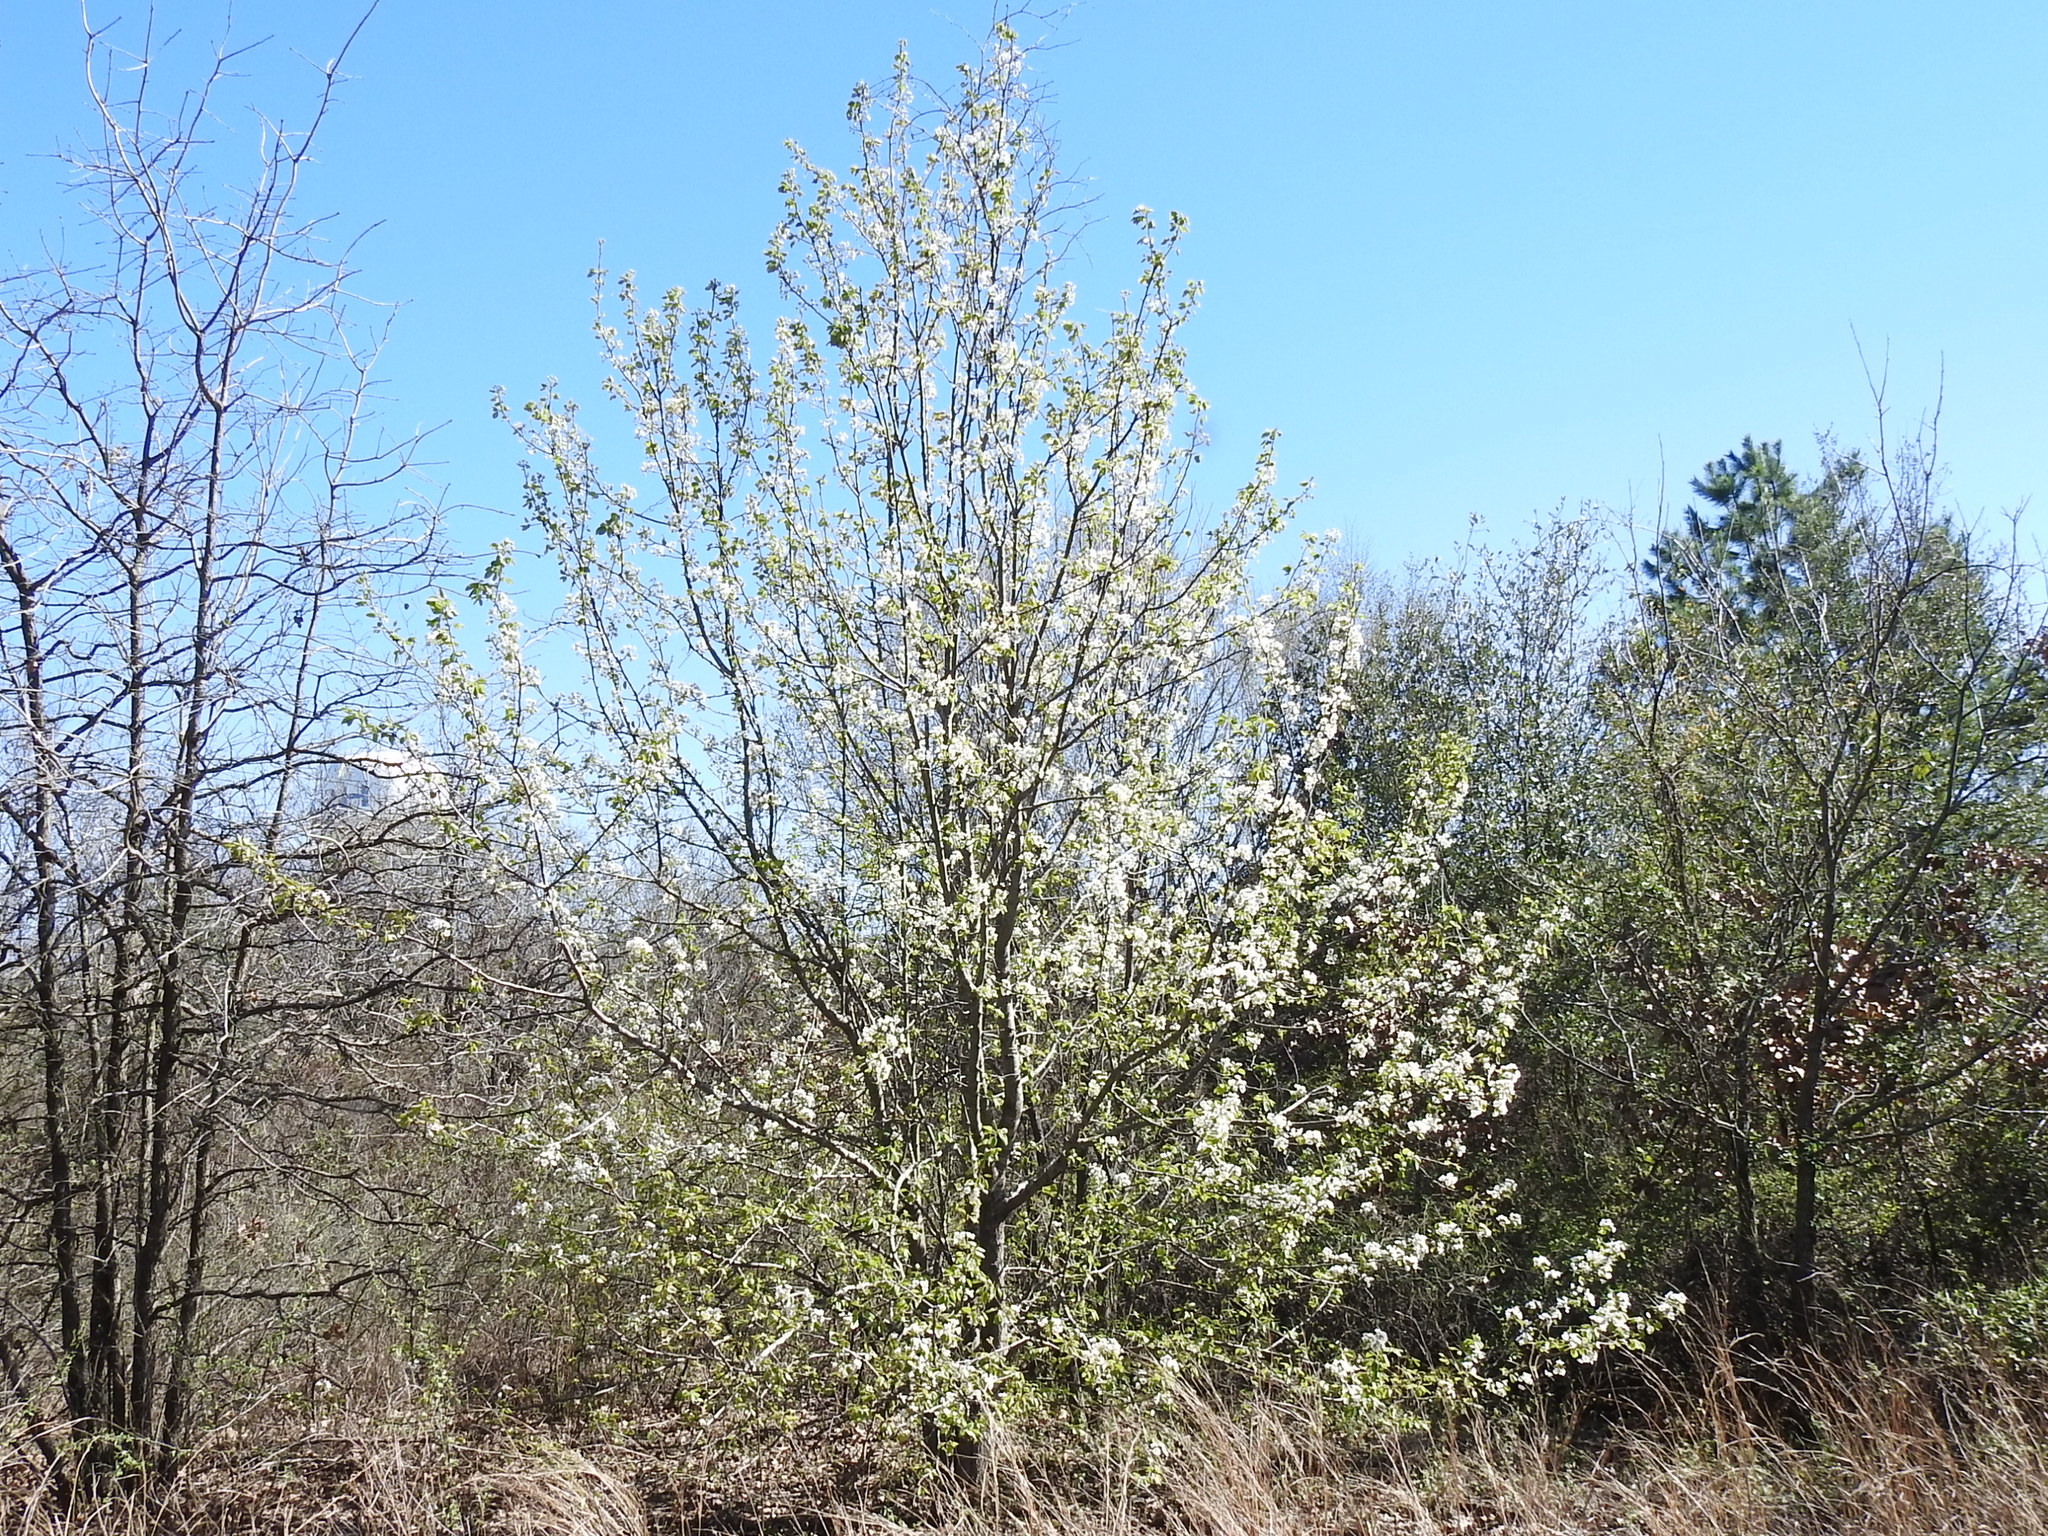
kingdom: Plantae
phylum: Tracheophyta
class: Magnoliopsida
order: Rosales
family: Rosaceae
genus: Pyrus
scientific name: Pyrus calleryana
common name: Callery pear
